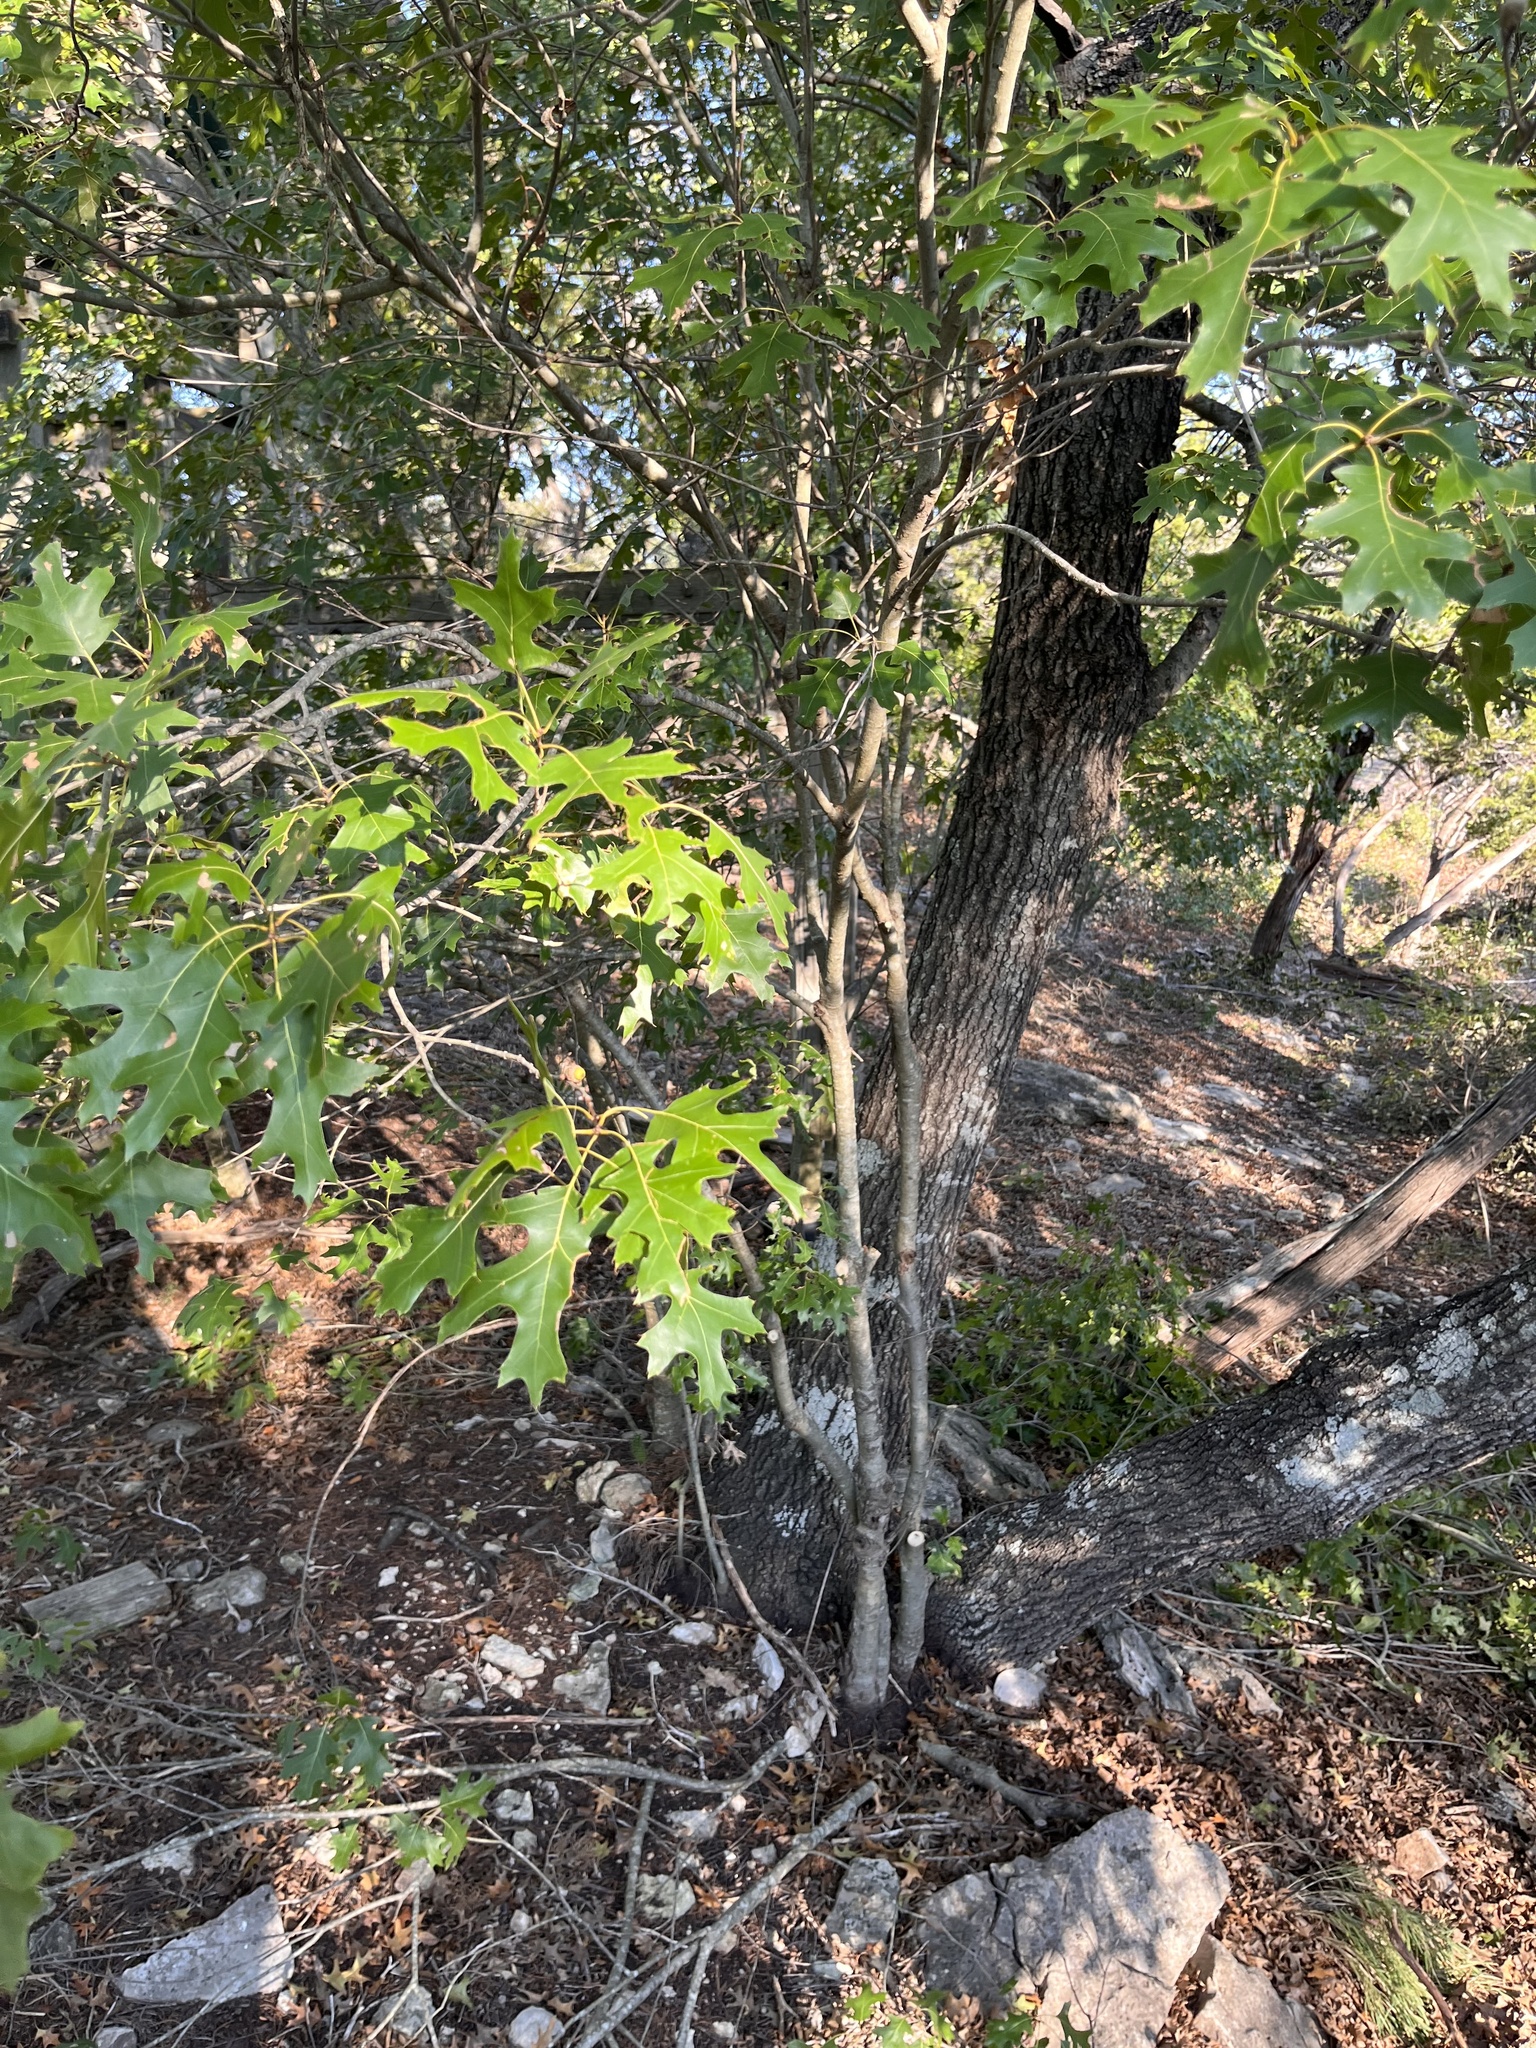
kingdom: Plantae
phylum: Tracheophyta
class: Magnoliopsida
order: Fagales
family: Fagaceae
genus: Quercus
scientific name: Quercus buckleyi
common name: Buckley oak
